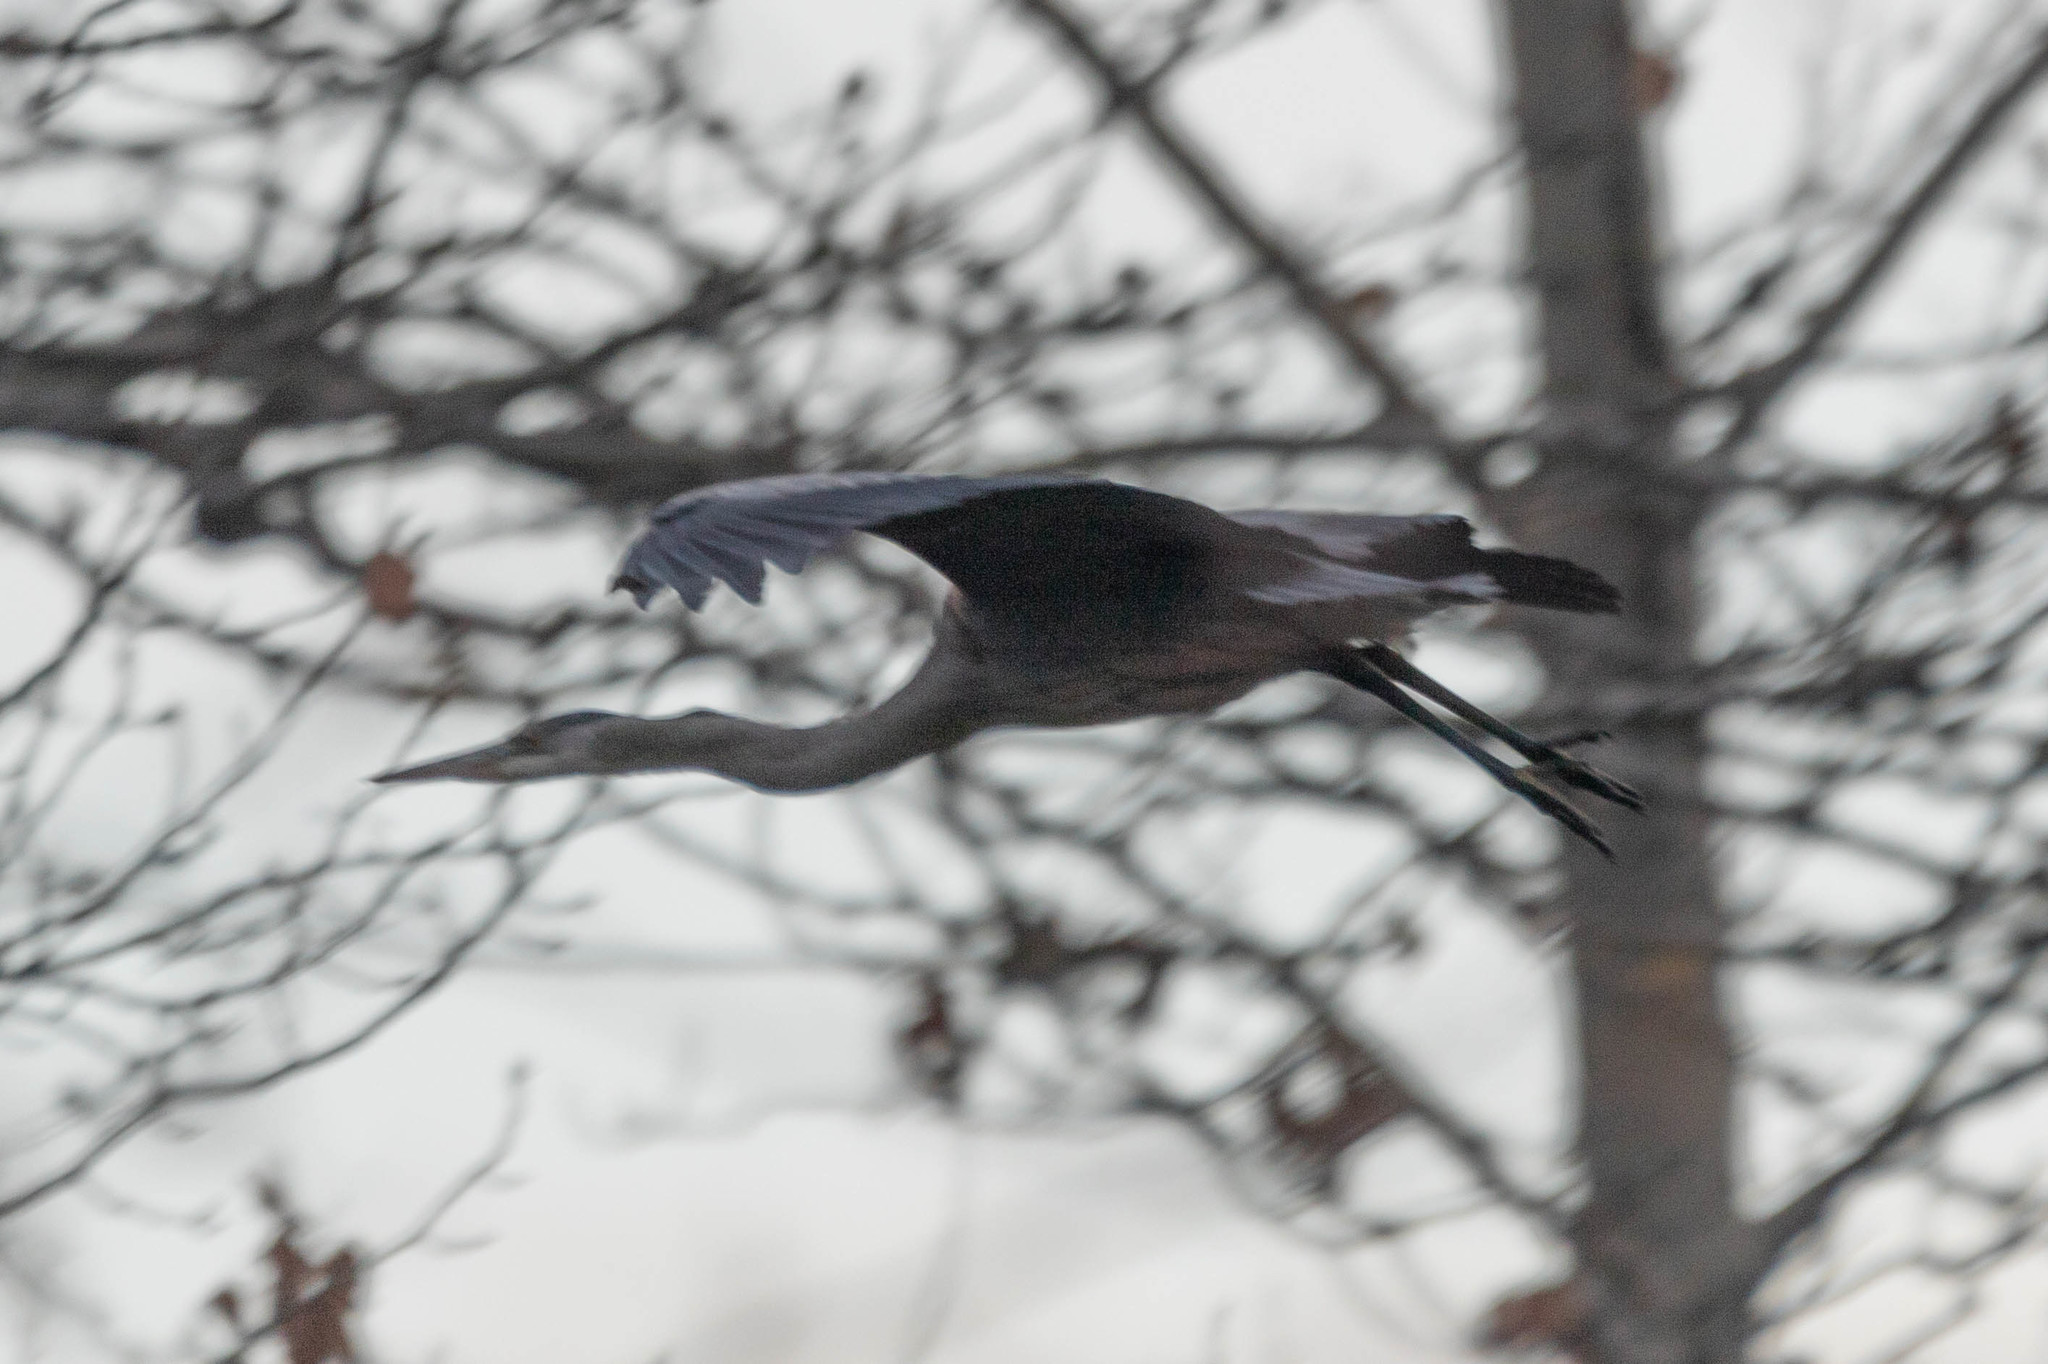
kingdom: Animalia
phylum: Chordata
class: Aves
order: Pelecaniformes
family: Ardeidae
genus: Ardea
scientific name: Ardea herodias
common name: Great blue heron
